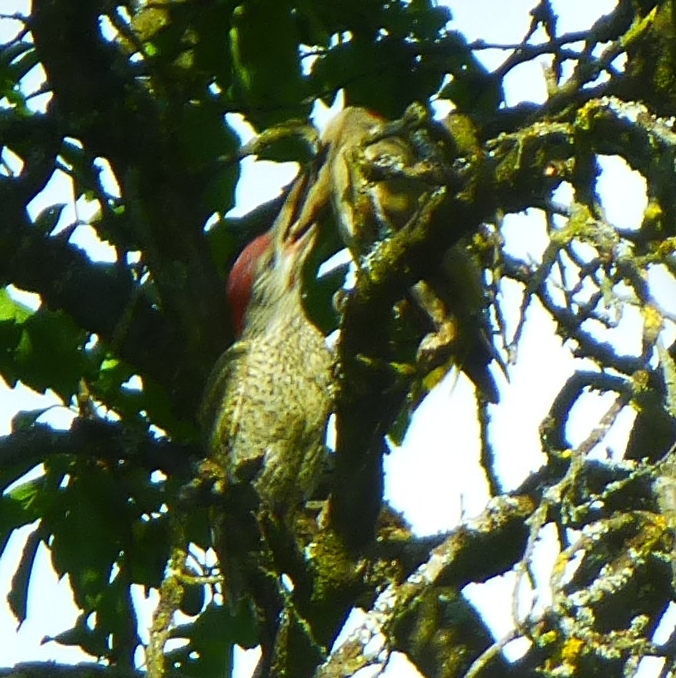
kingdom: Animalia
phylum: Chordata
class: Aves
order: Piciformes
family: Picidae
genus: Picus
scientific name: Picus viridis
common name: European green woodpecker
